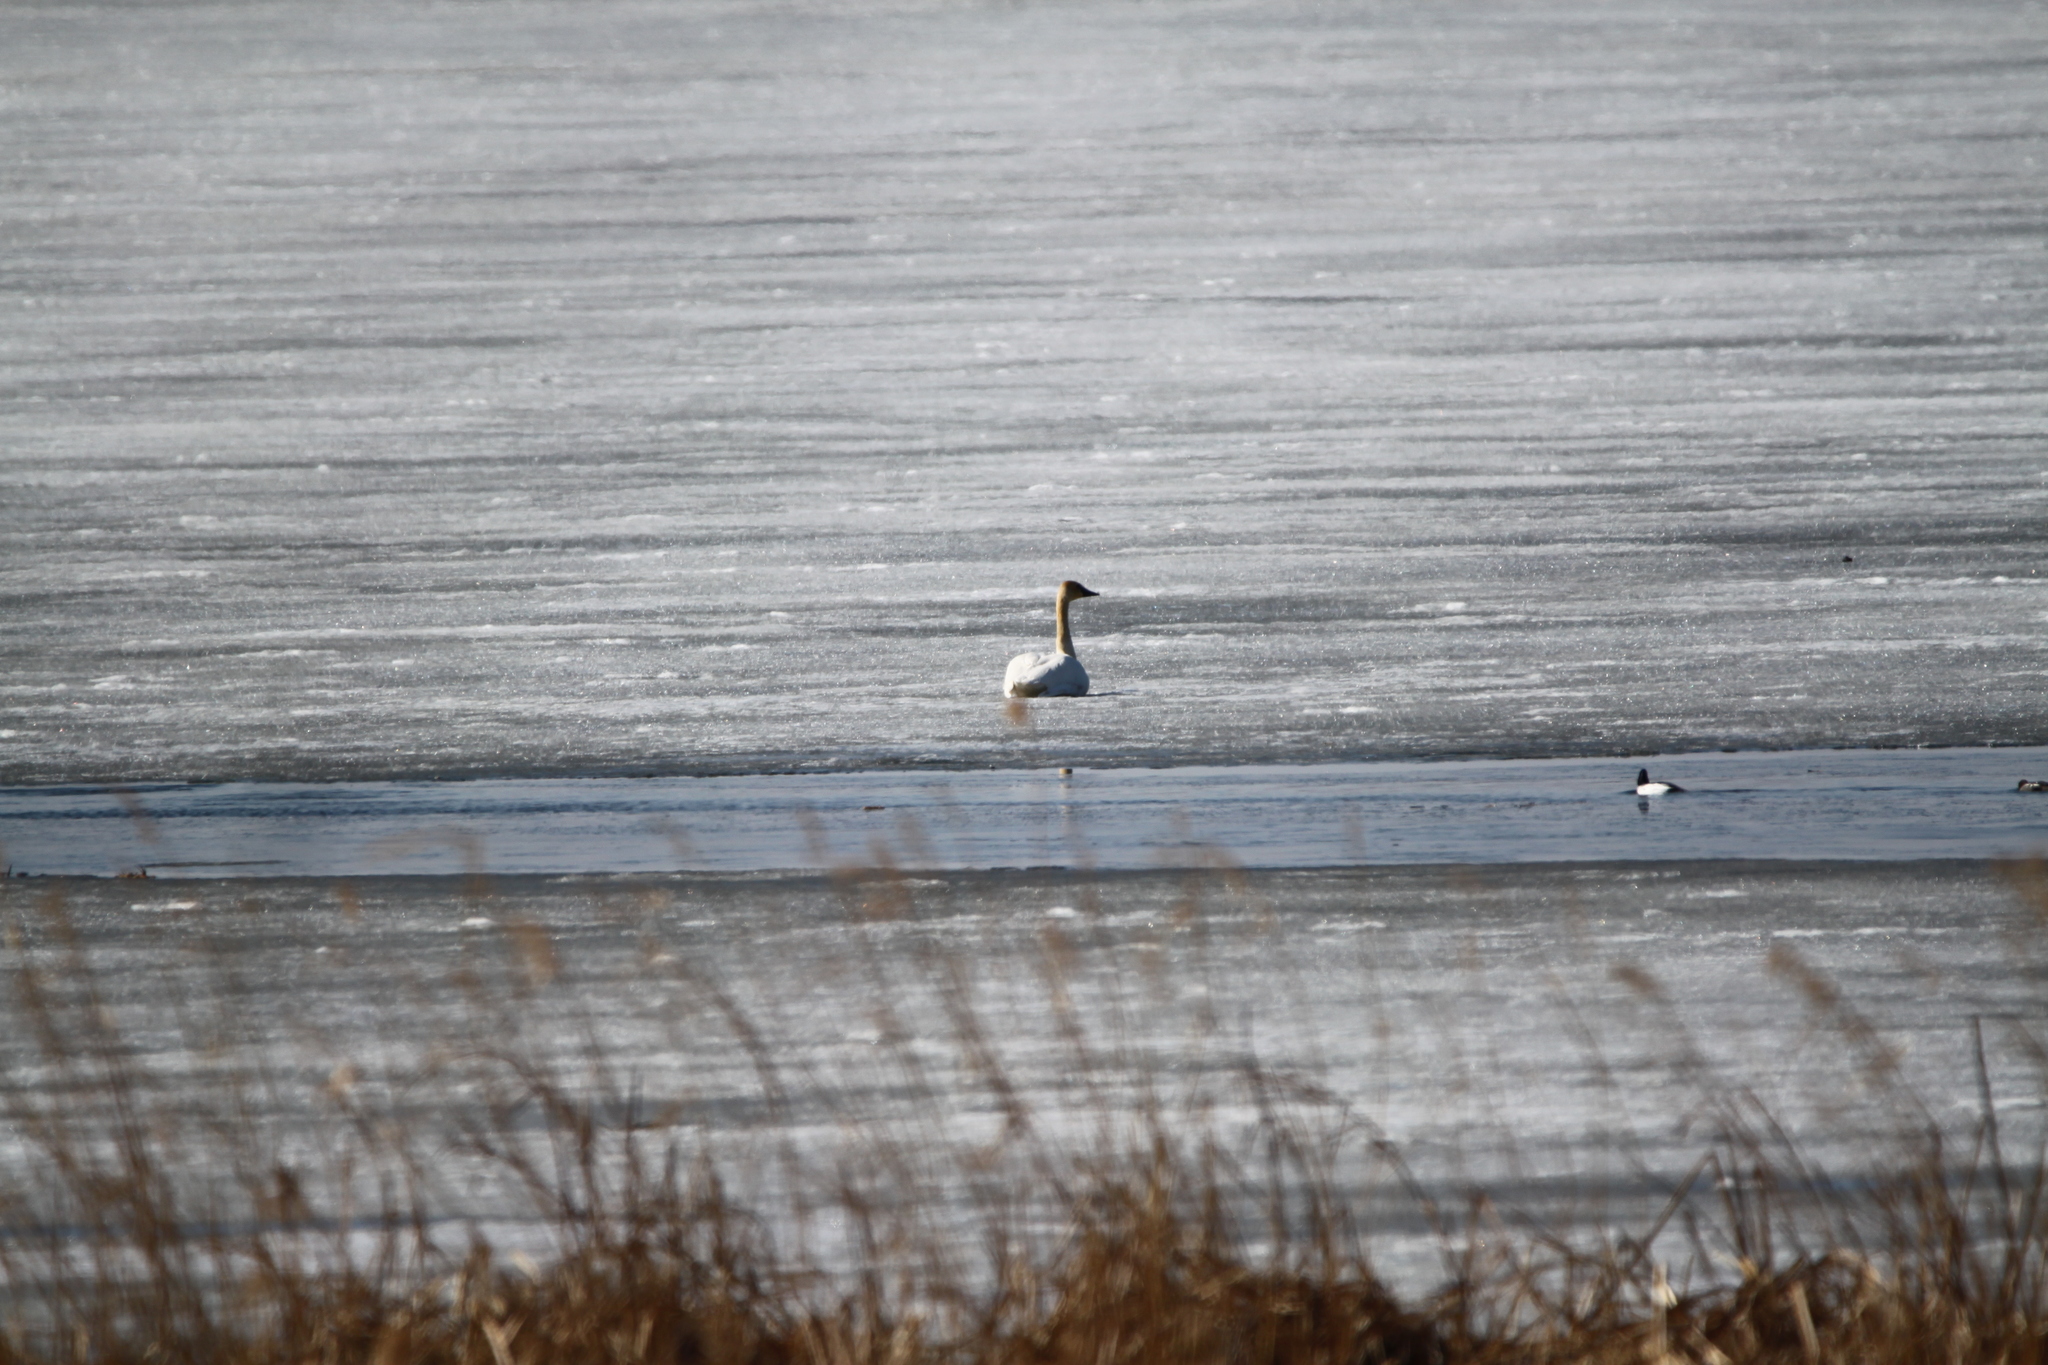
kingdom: Animalia
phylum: Chordata
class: Aves
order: Anseriformes
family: Anatidae
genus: Cygnus
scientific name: Cygnus buccinator
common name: Trumpeter swan
